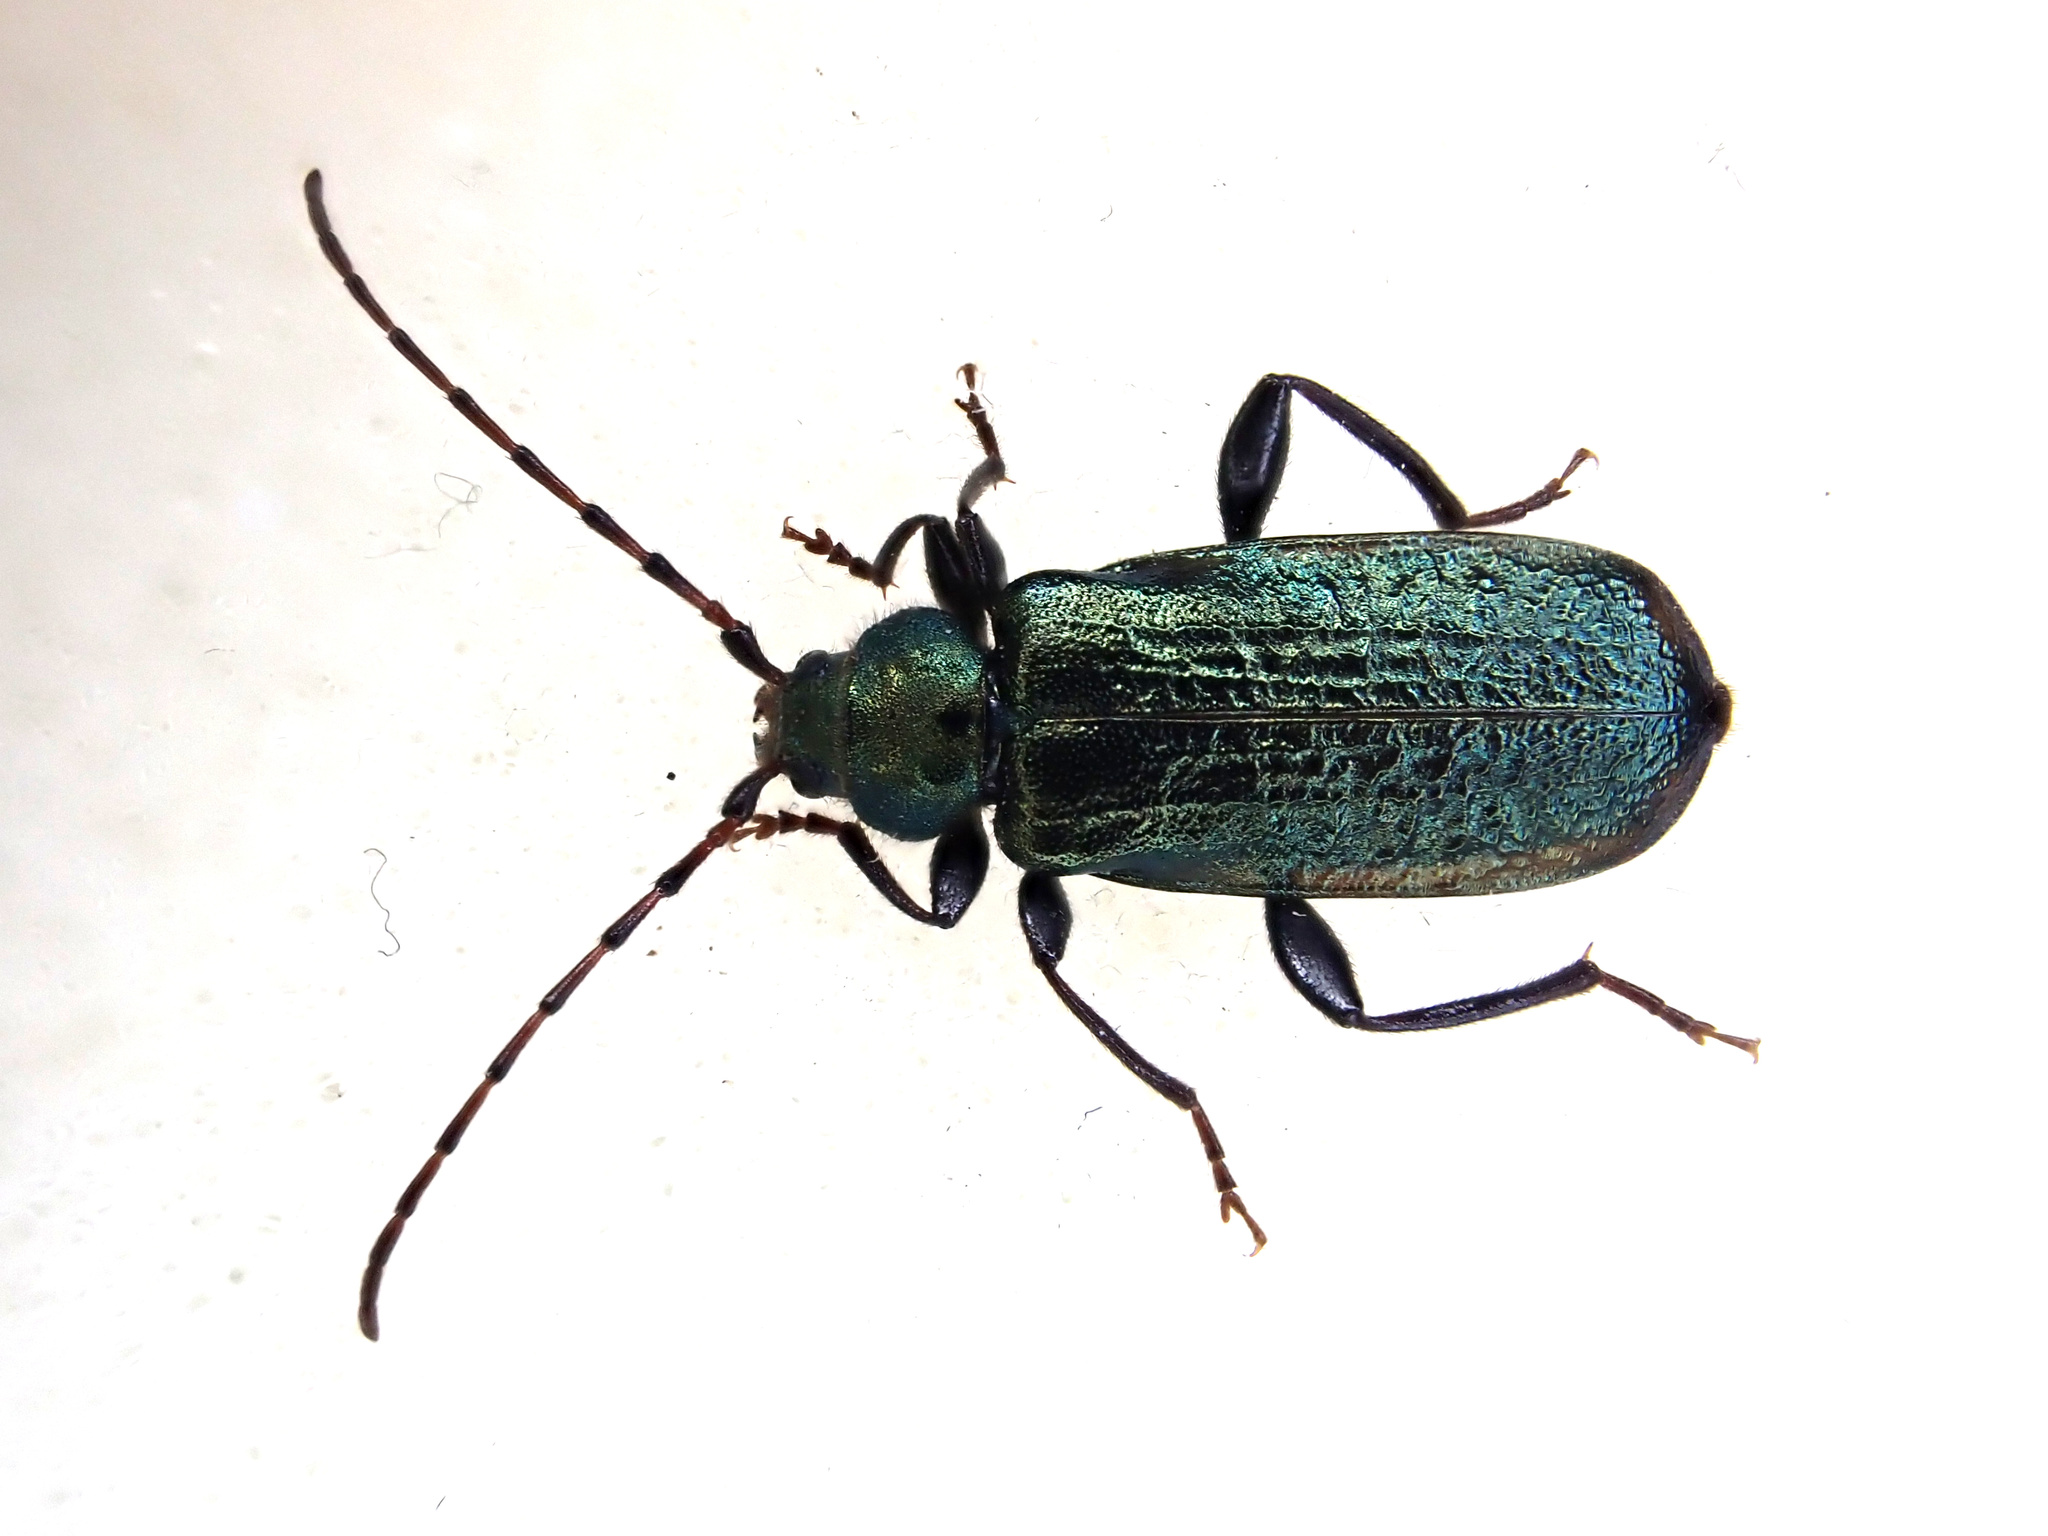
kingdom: Animalia
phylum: Arthropoda
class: Insecta
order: Coleoptera
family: Cerambycidae
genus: Callidium
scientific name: Callidium aeneum
